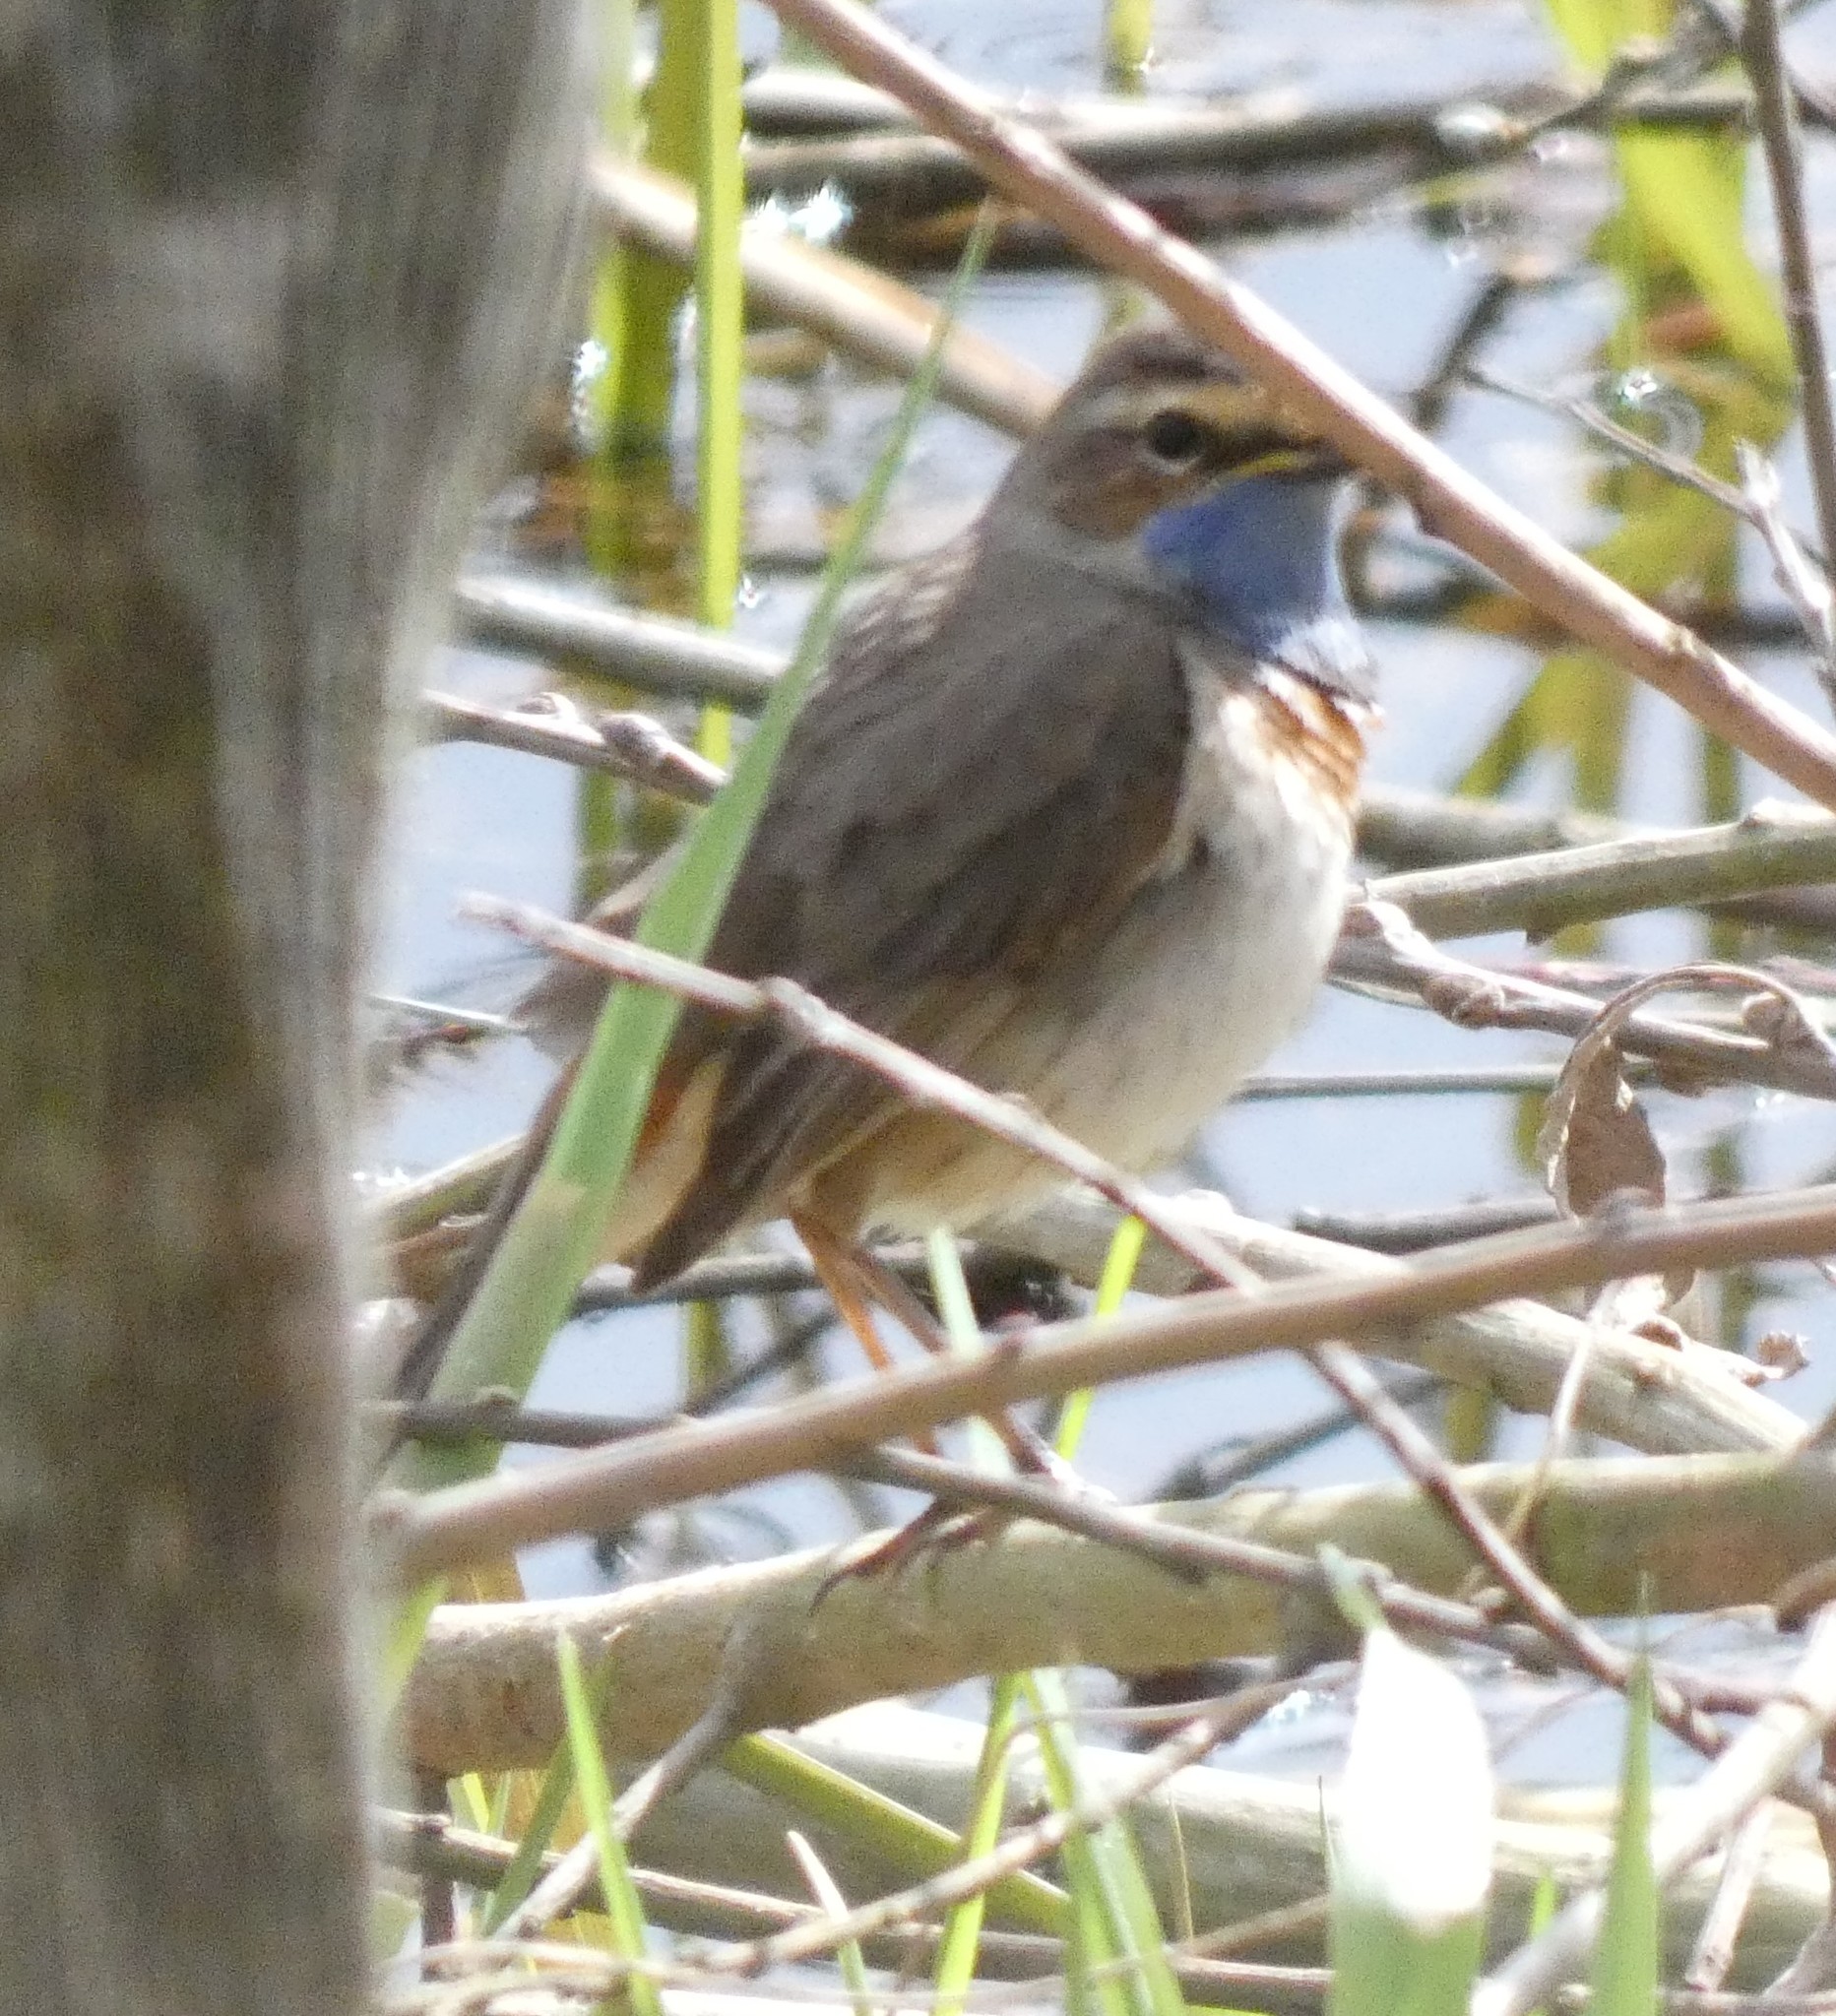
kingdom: Animalia
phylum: Chordata
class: Aves
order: Passeriformes
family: Muscicapidae
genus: Luscinia
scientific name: Luscinia svecica
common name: Bluethroat
